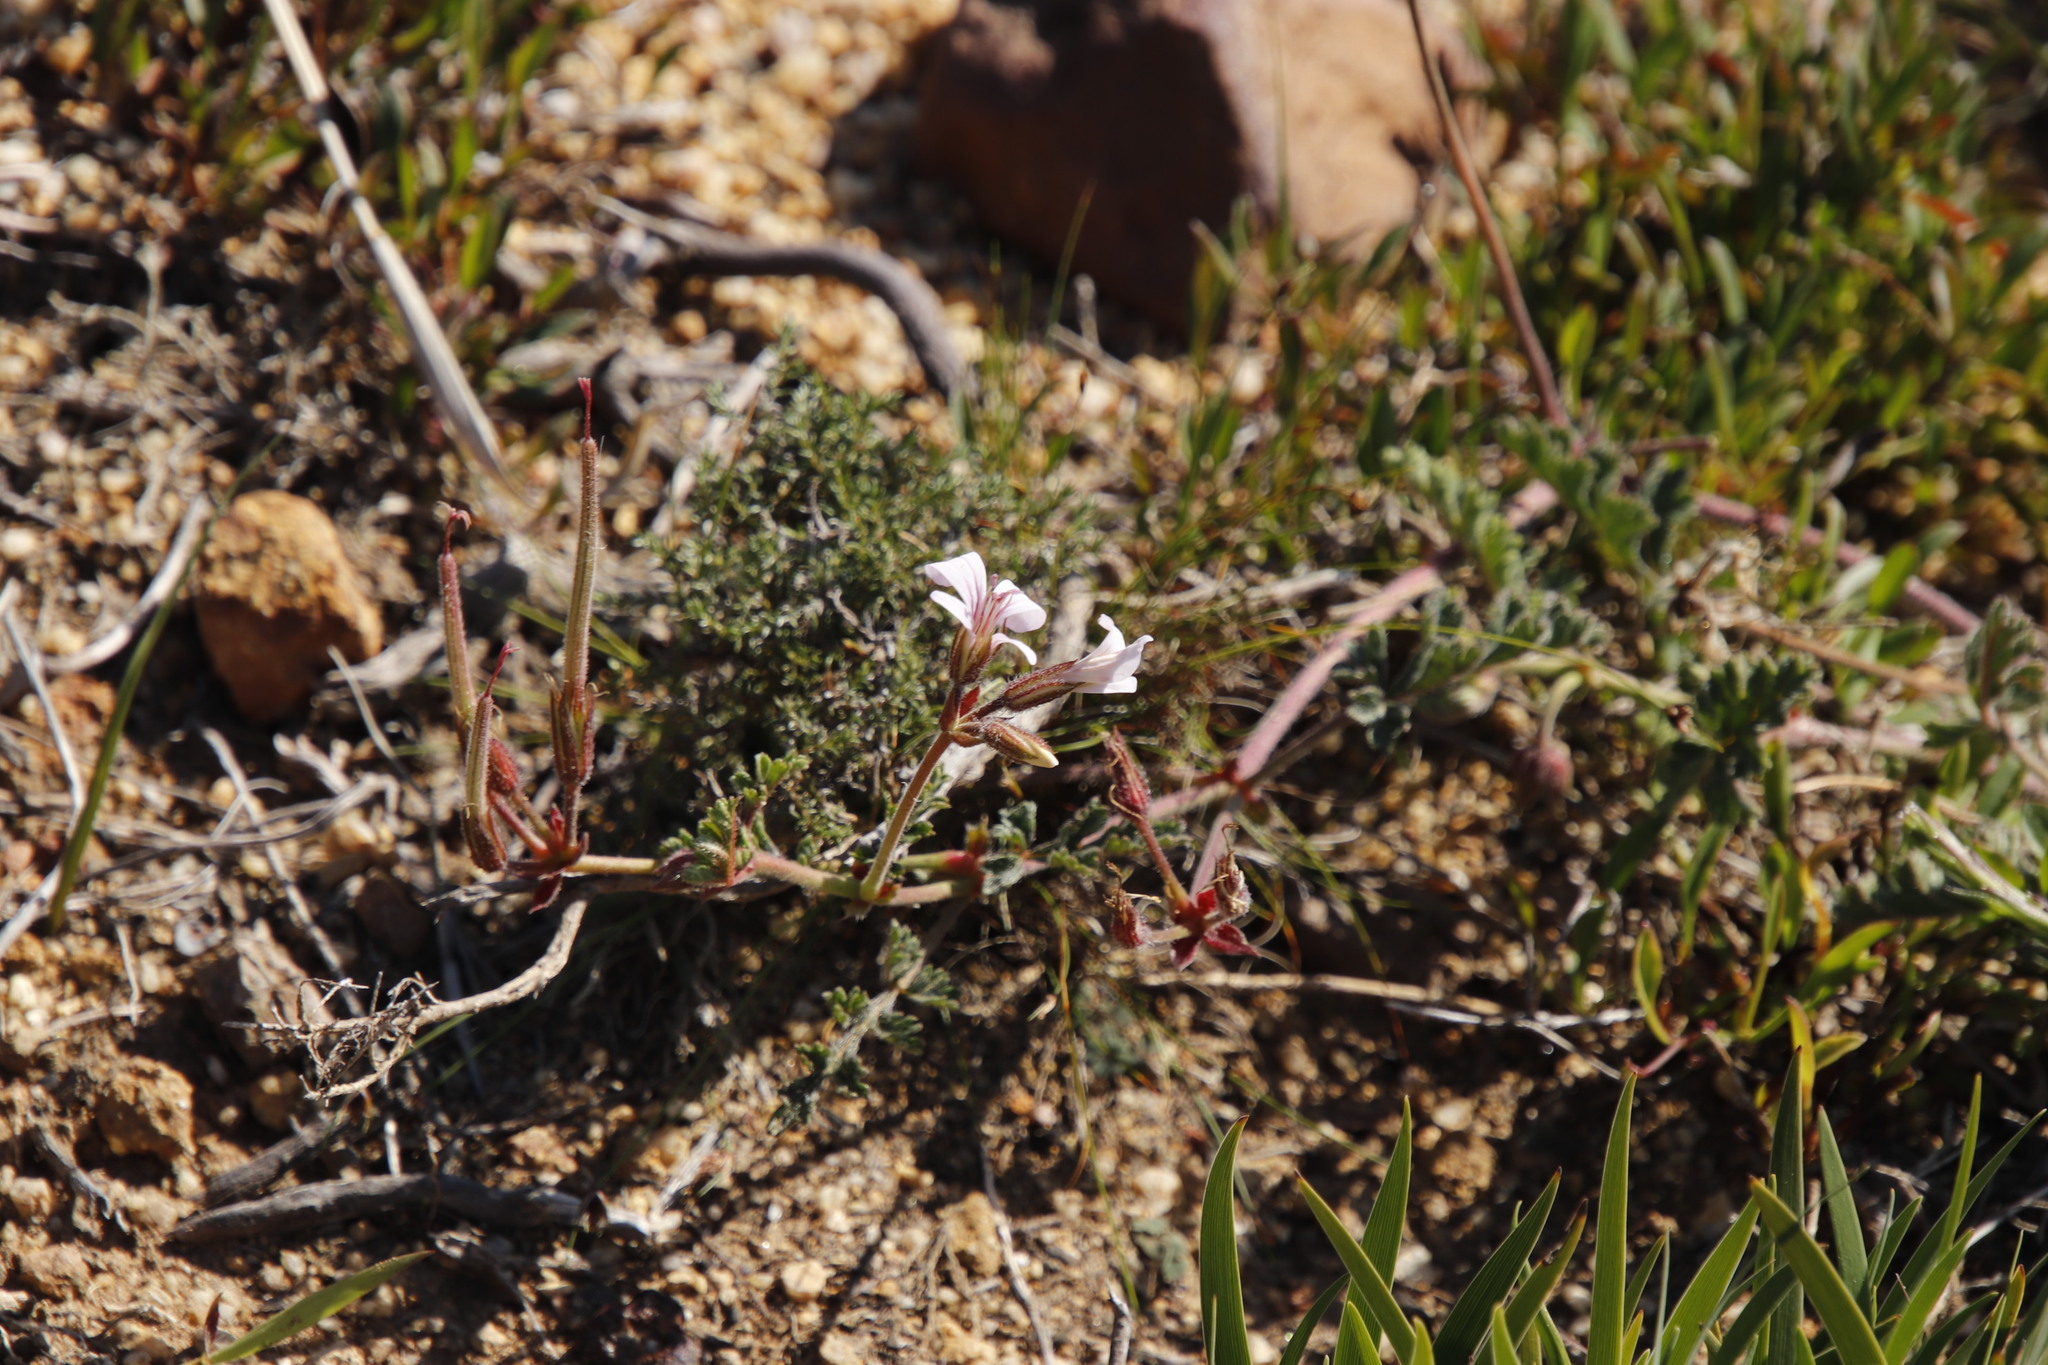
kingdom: Plantae
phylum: Tracheophyta
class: Magnoliopsida
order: Geraniales
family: Geraniaceae
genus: Pelargonium
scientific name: Pelargonium candicans
